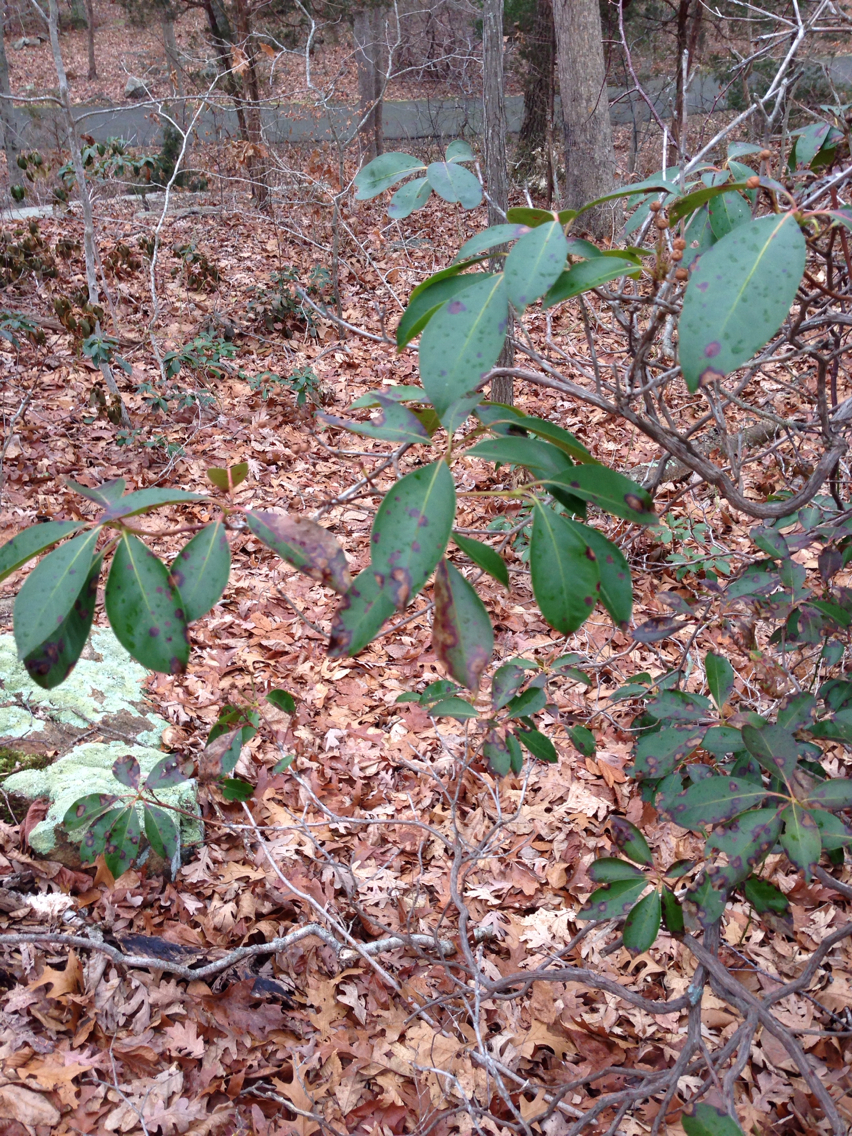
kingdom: Plantae
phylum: Tracheophyta
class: Magnoliopsida
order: Ericales
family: Ericaceae
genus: Kalmia
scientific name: Kalmia latifolia
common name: Mountain-laurel
